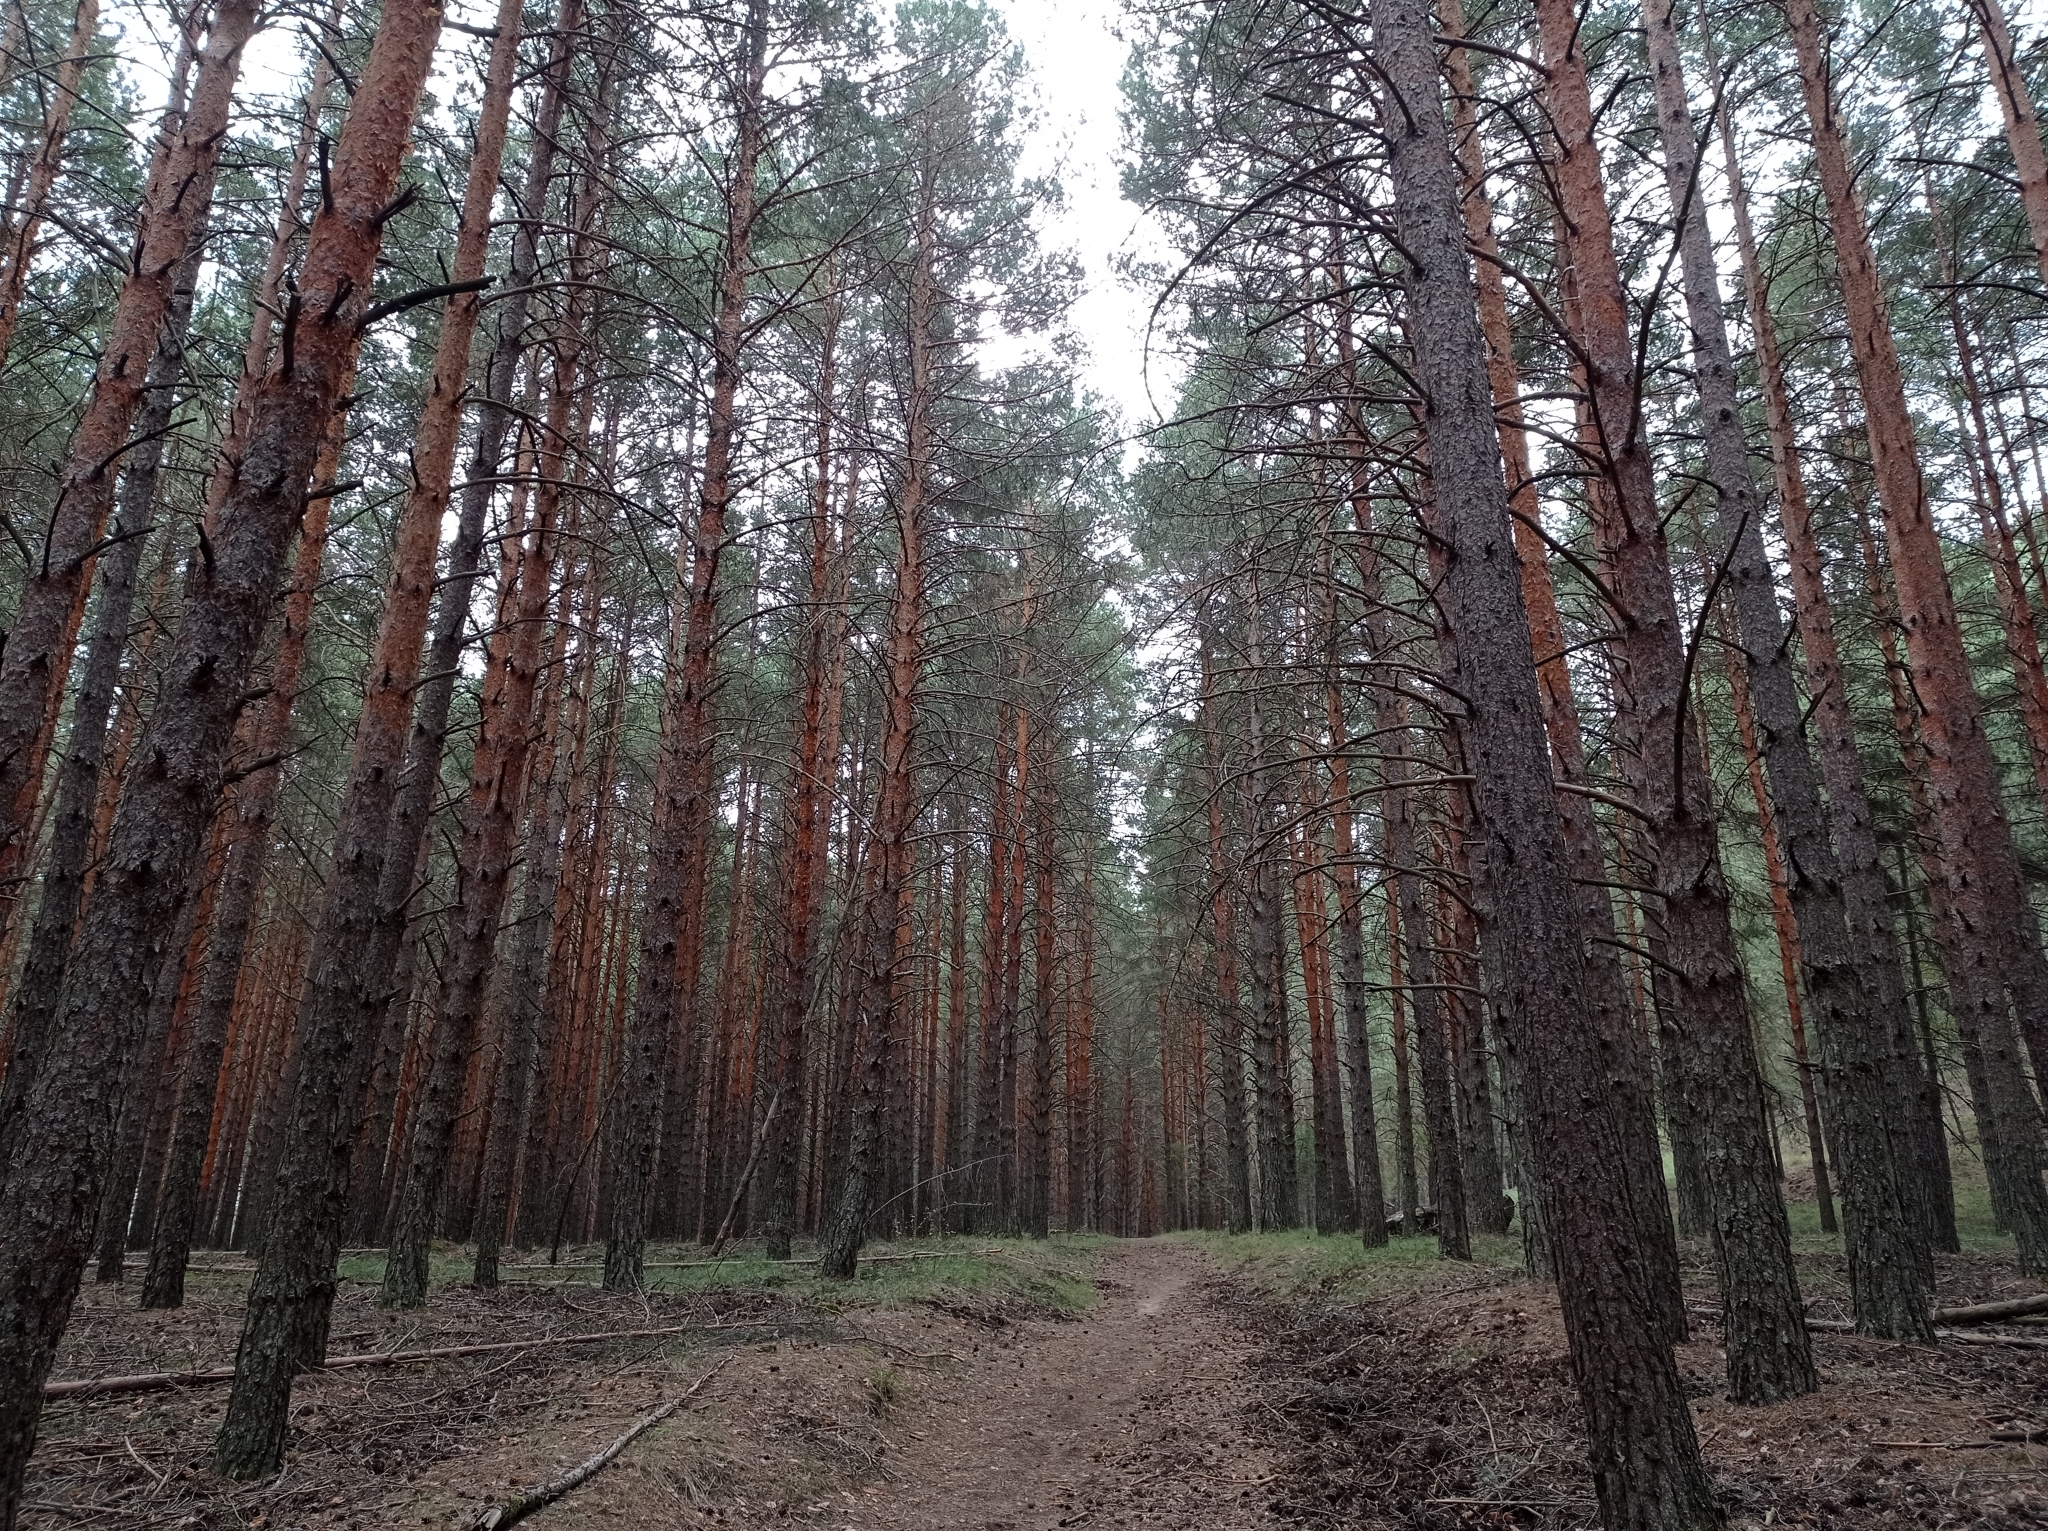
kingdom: Plantae
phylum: Tracheophyta
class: Pinopsida
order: Pinales
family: Pinaceae
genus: Pinus
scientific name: Pinus sylvestris
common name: Scots pine
